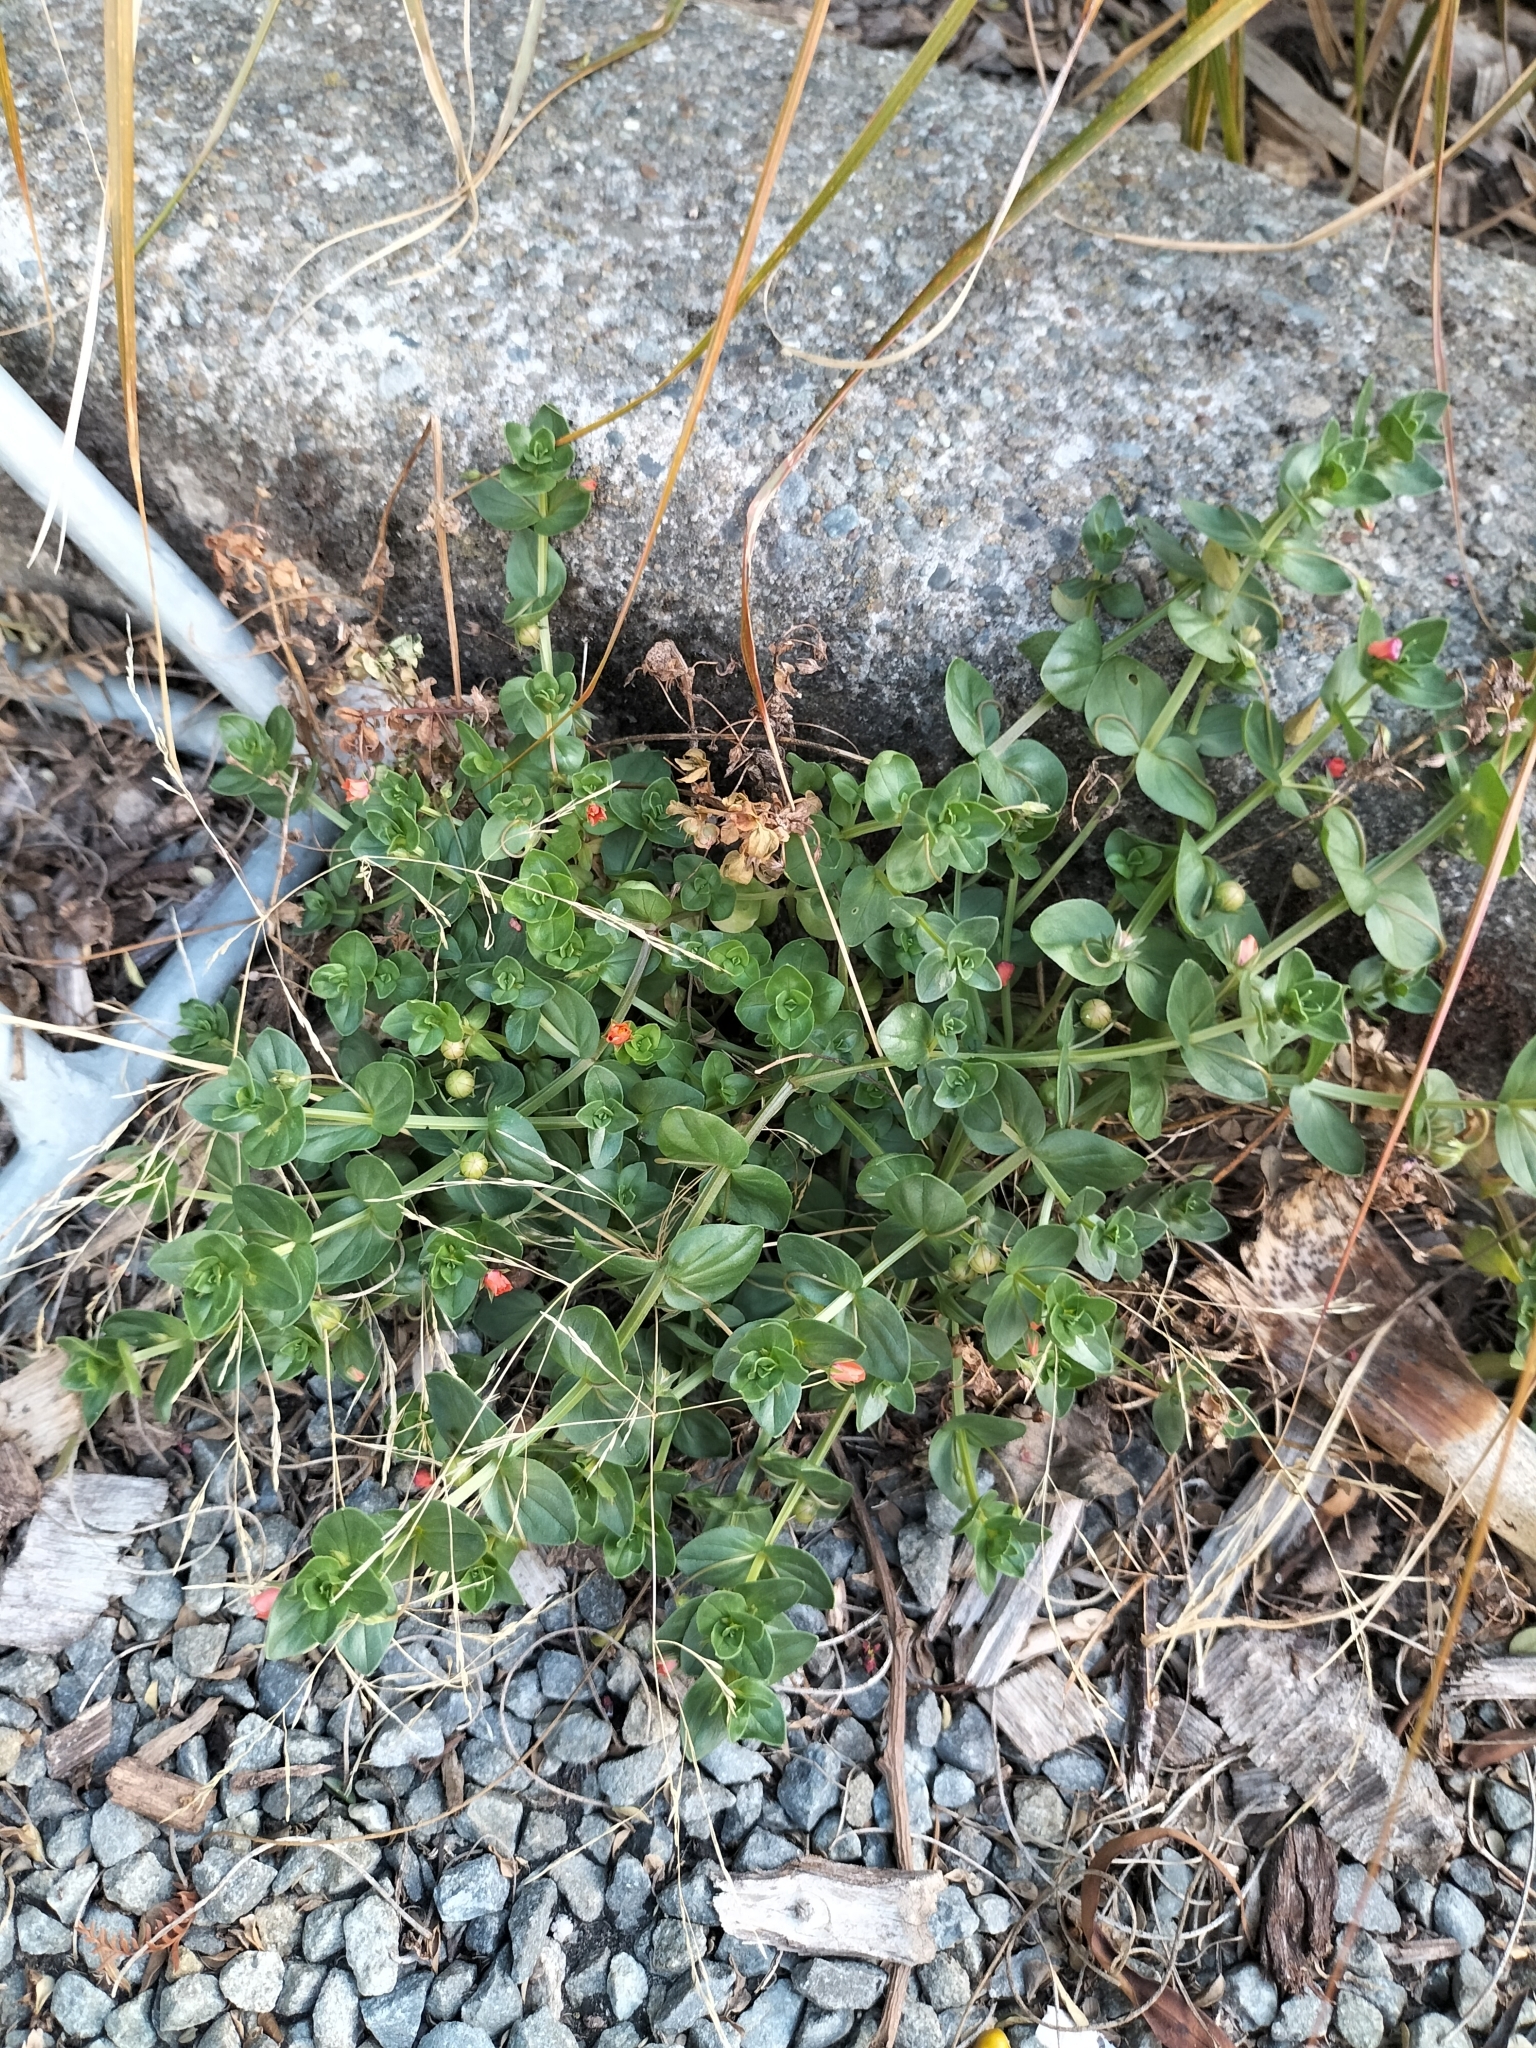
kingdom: Plantae
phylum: Tracheophyta
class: Magnoliopsida
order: Ericales
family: Primulaceae
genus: Lysimachia
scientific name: Lysimachia arvensis
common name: Scarlet pimpernel
